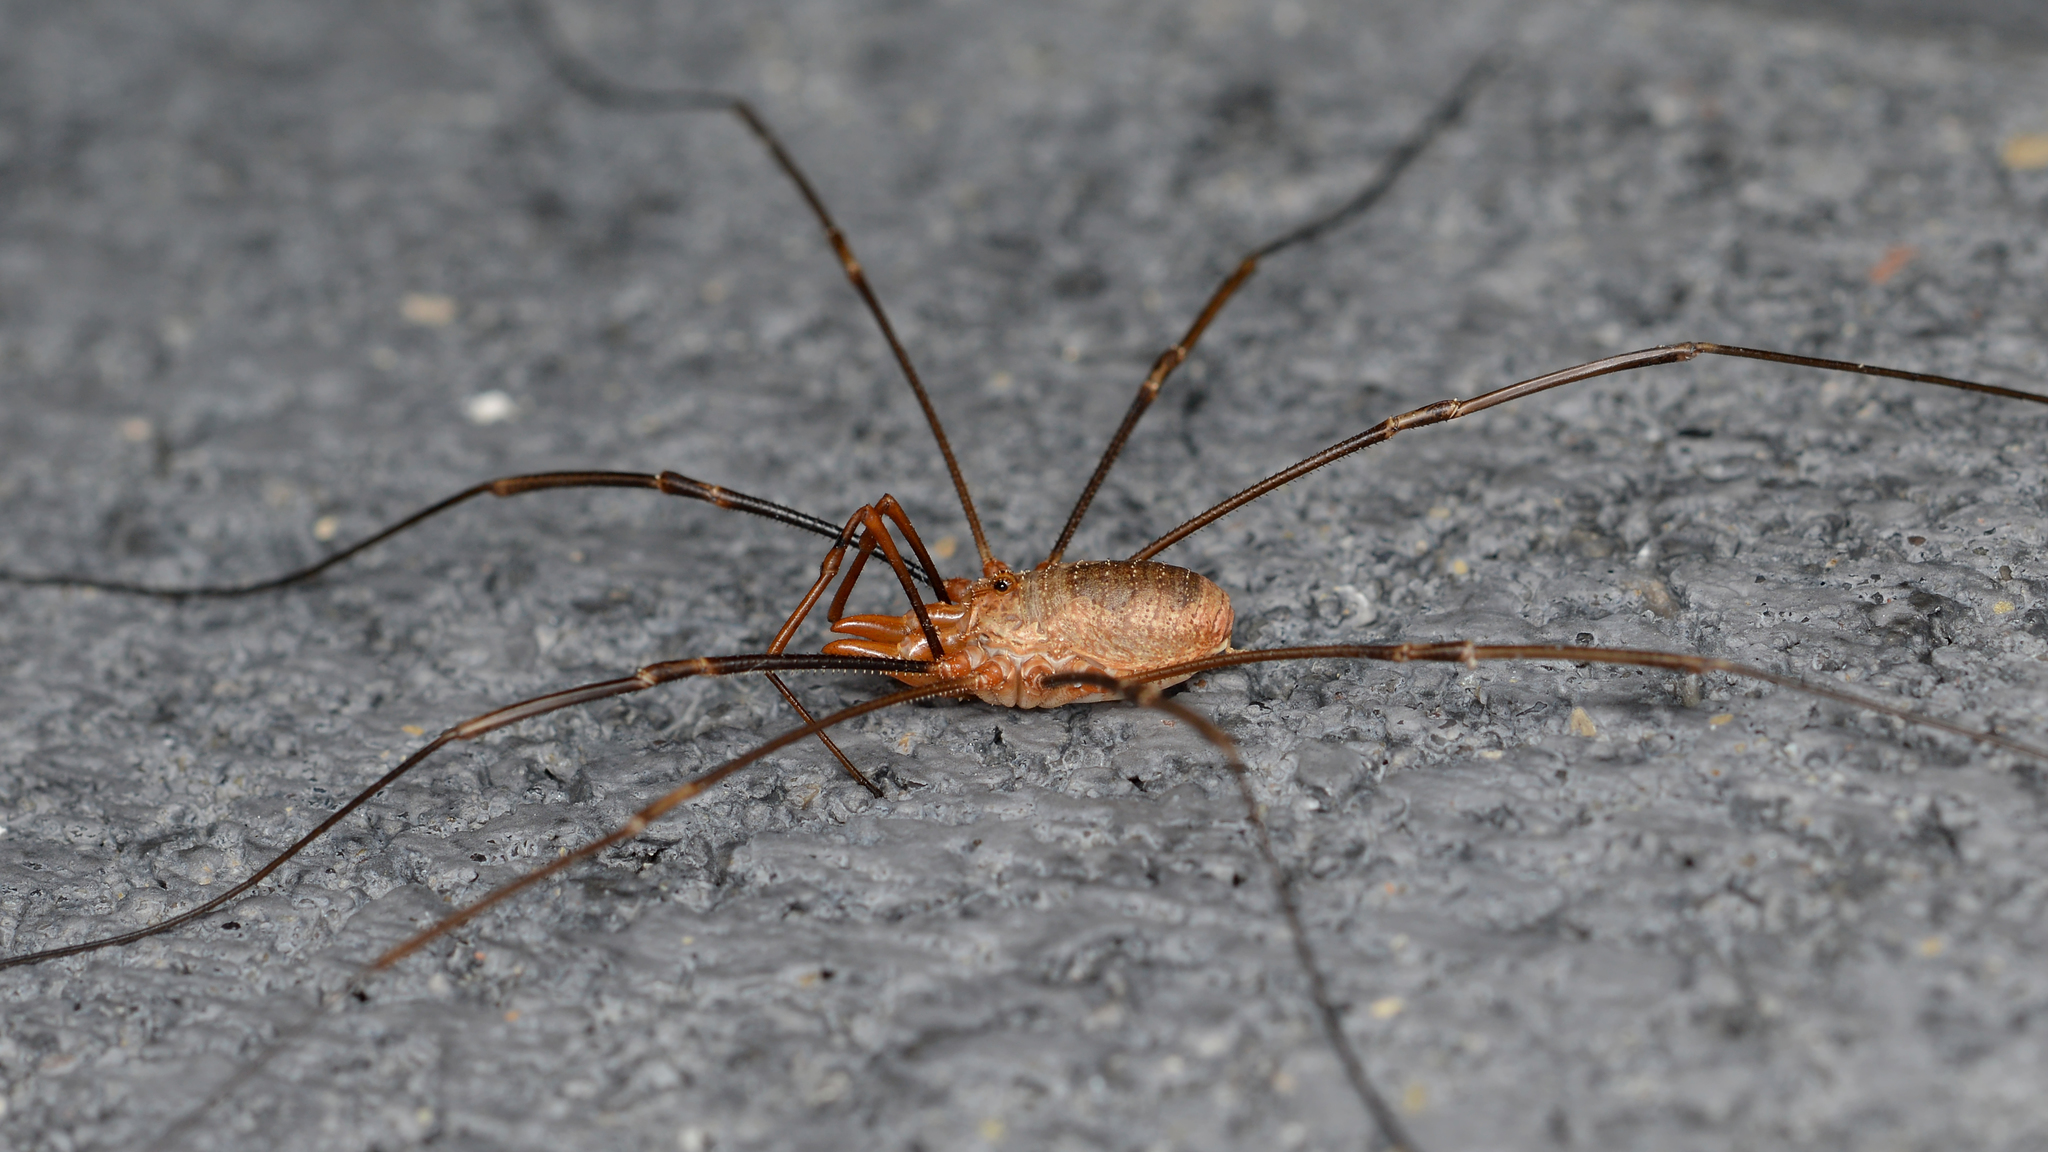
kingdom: Animalia
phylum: Arthropoda
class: Arachnida
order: Opiliones
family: Phalangiidae
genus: Phalangium
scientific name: Phalangium opilio
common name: Daddy longleg
